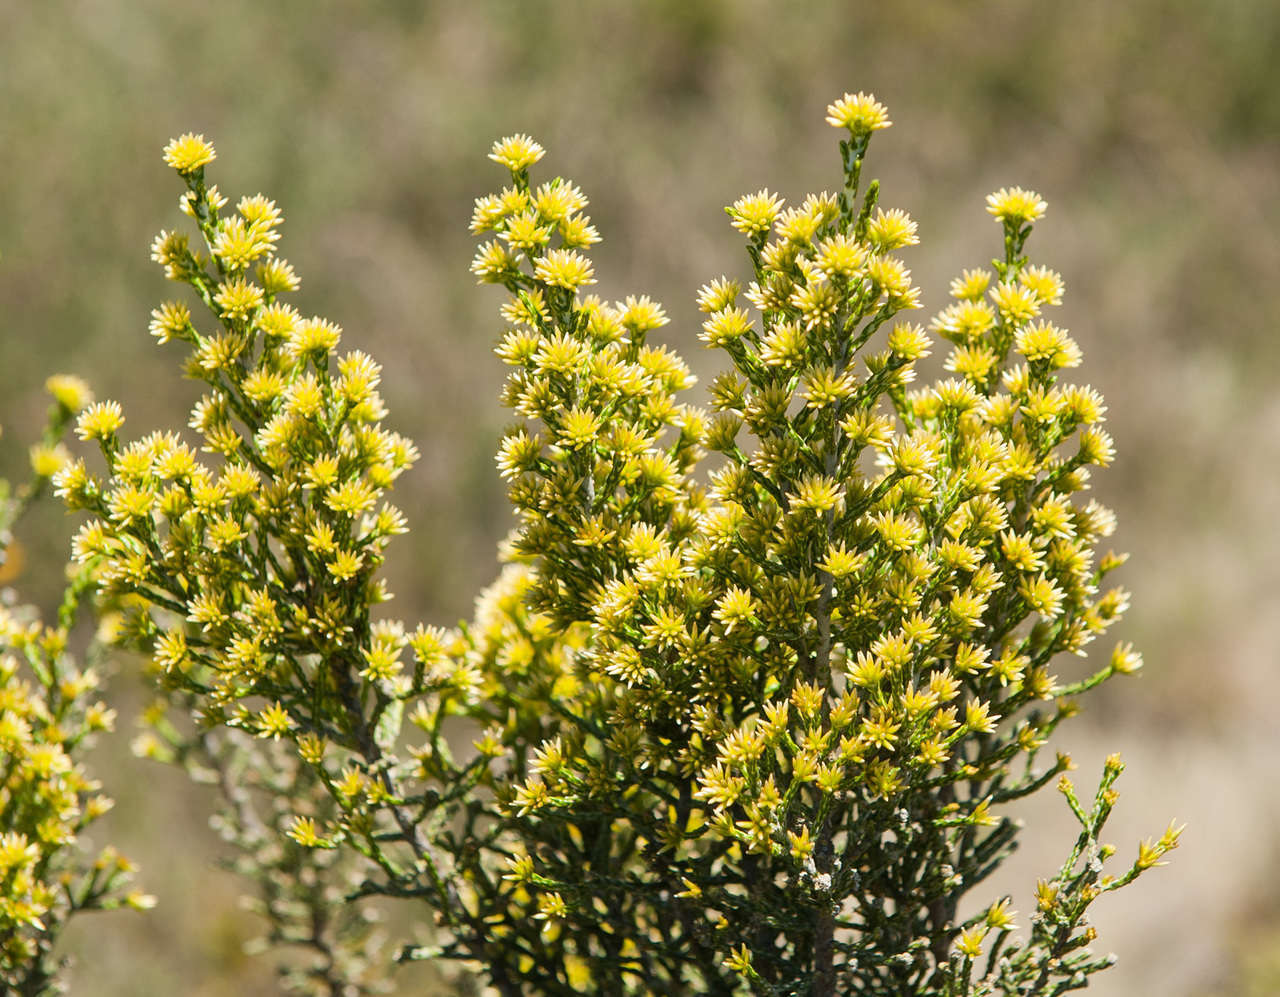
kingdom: Plantae
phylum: Tracheophyta
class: Magnoliopsida
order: Asterales
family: Asteraceae
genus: Ozothamnus
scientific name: Ozothamnus cupressoides
